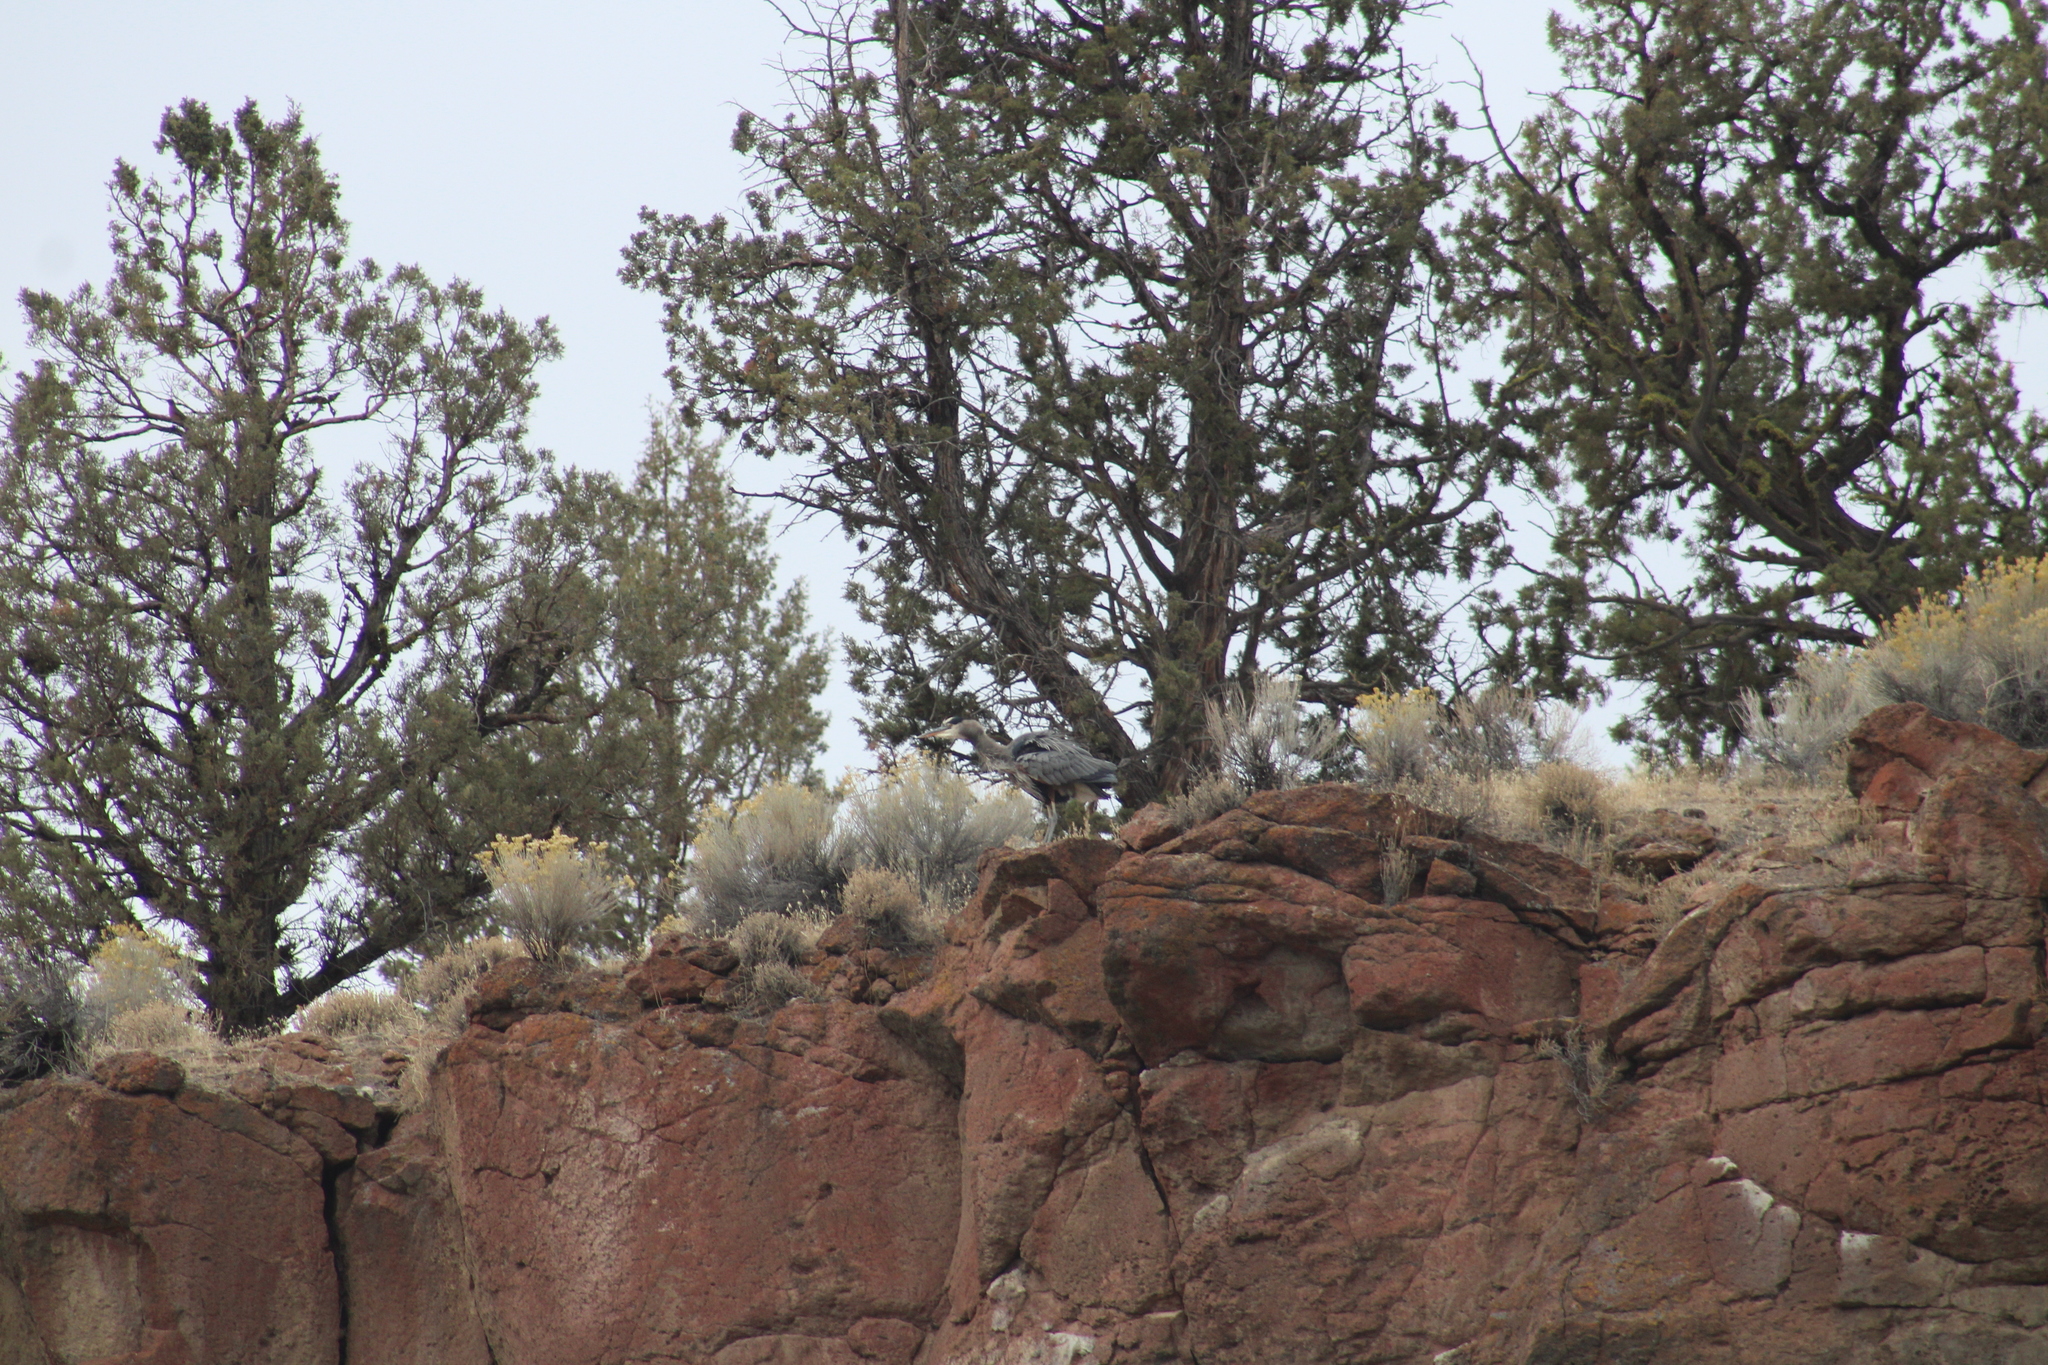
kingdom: Animalia
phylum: Chordata
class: Aves
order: Pelecaniformes
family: Ardeidae
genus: Ardea
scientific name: Ardea herodias
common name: Great blue heron
